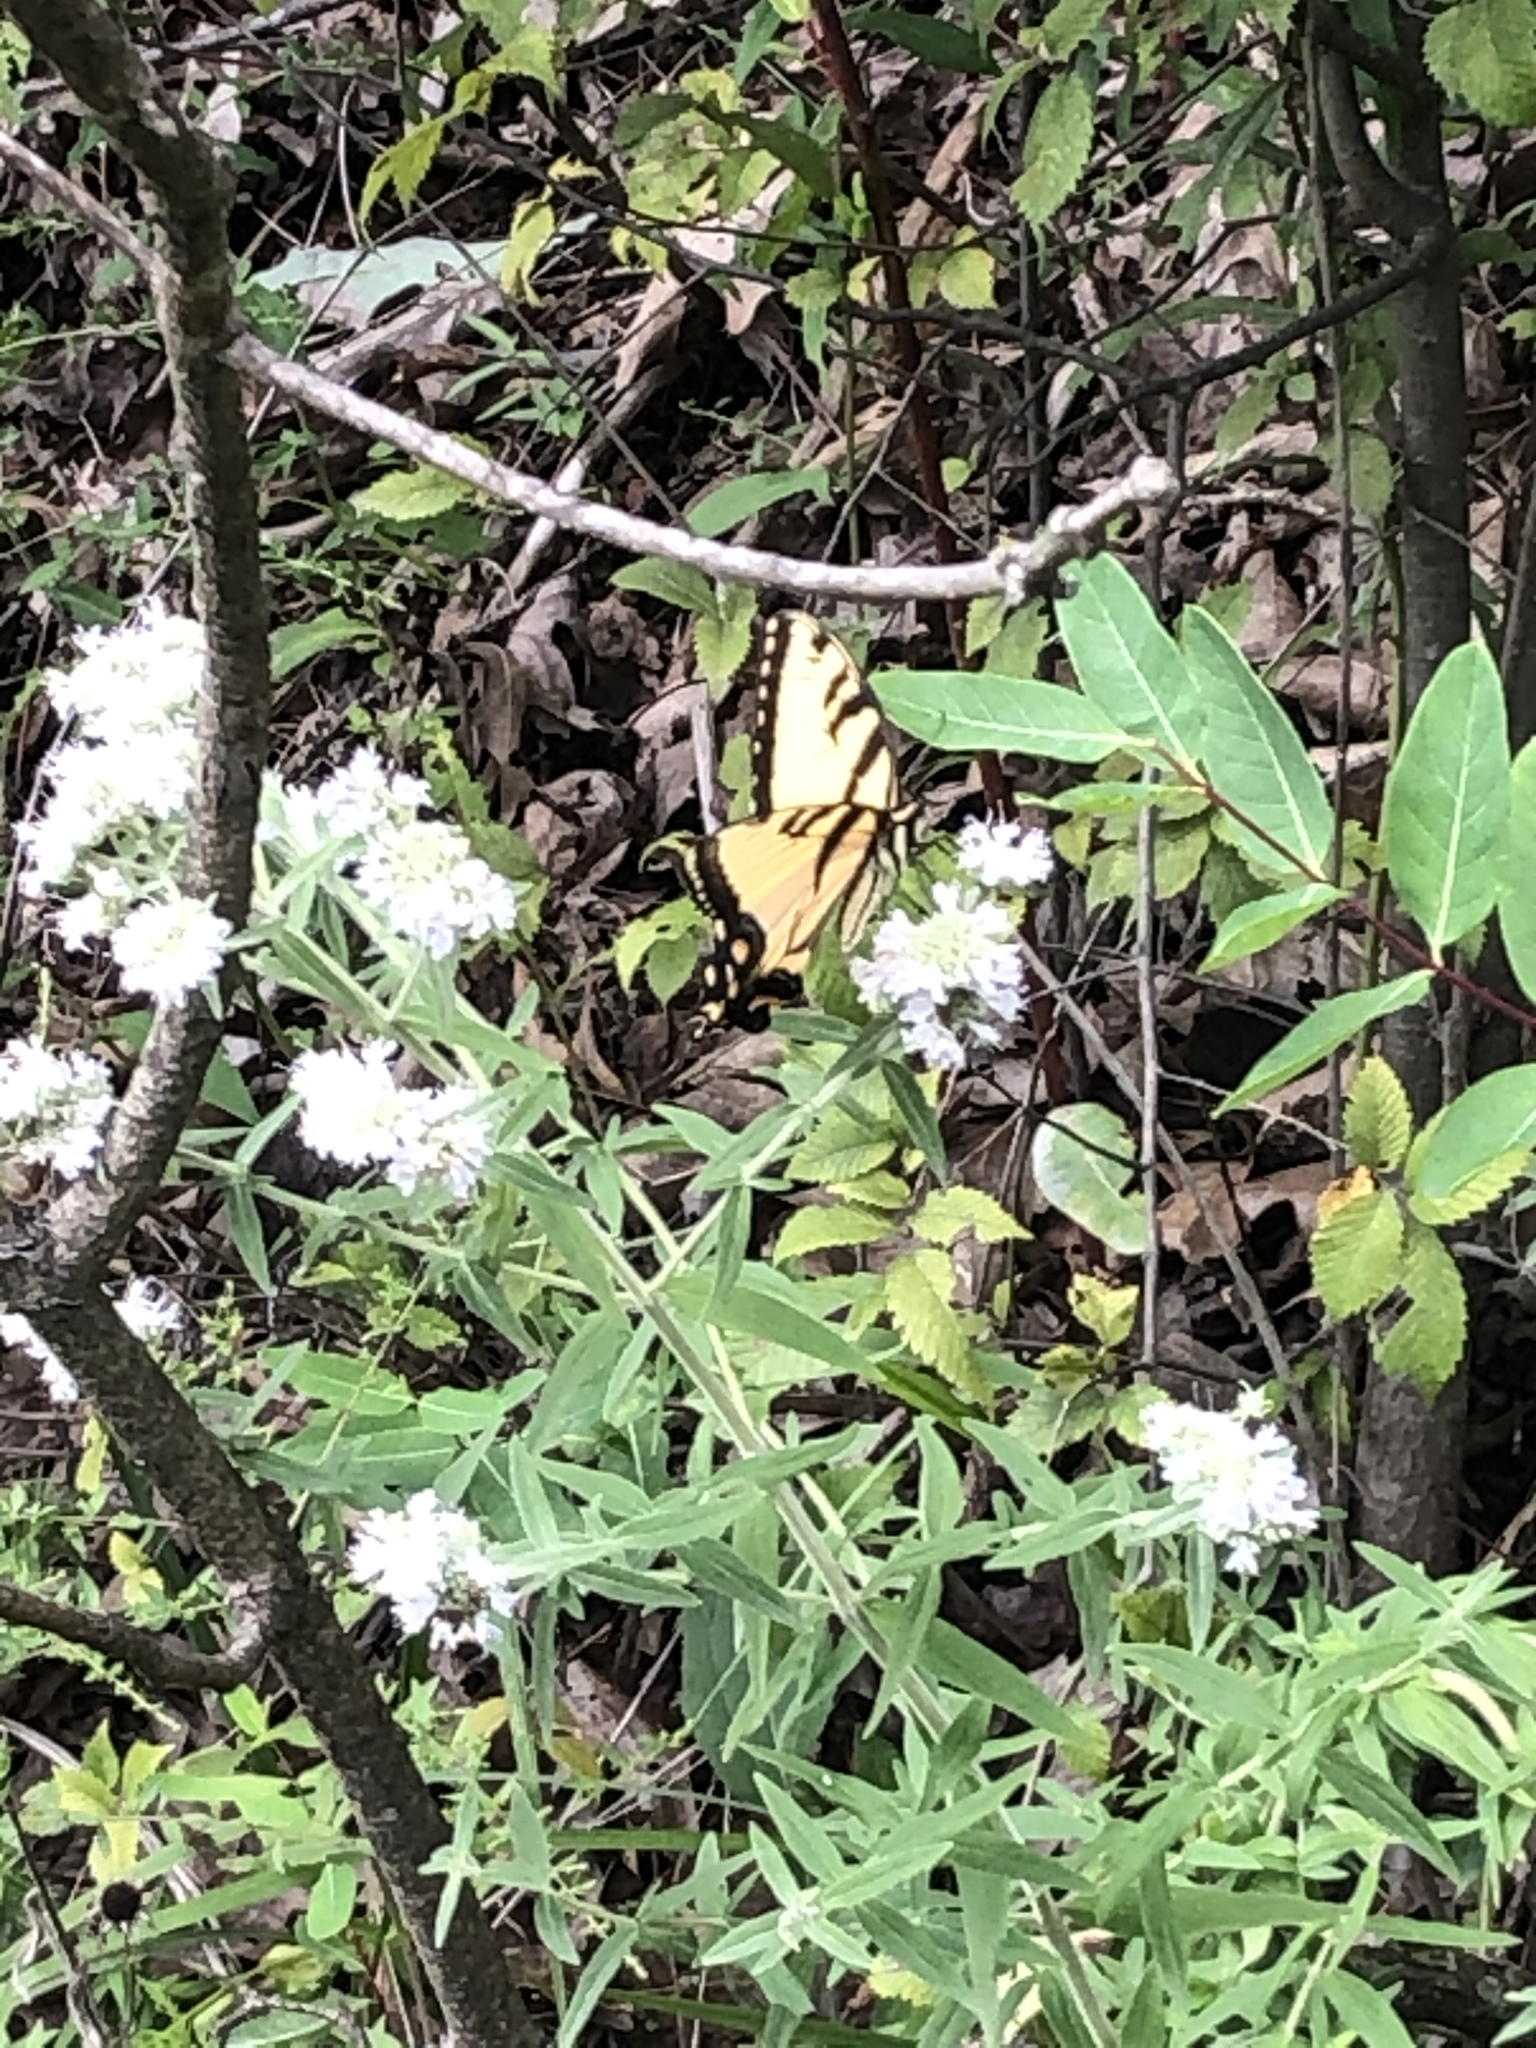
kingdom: Animalia
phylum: Arthropoda
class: Insecta
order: Lepidoptera
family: Papilionidae
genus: Papilio
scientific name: Papilio glaucus
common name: Tiger swallowtail
